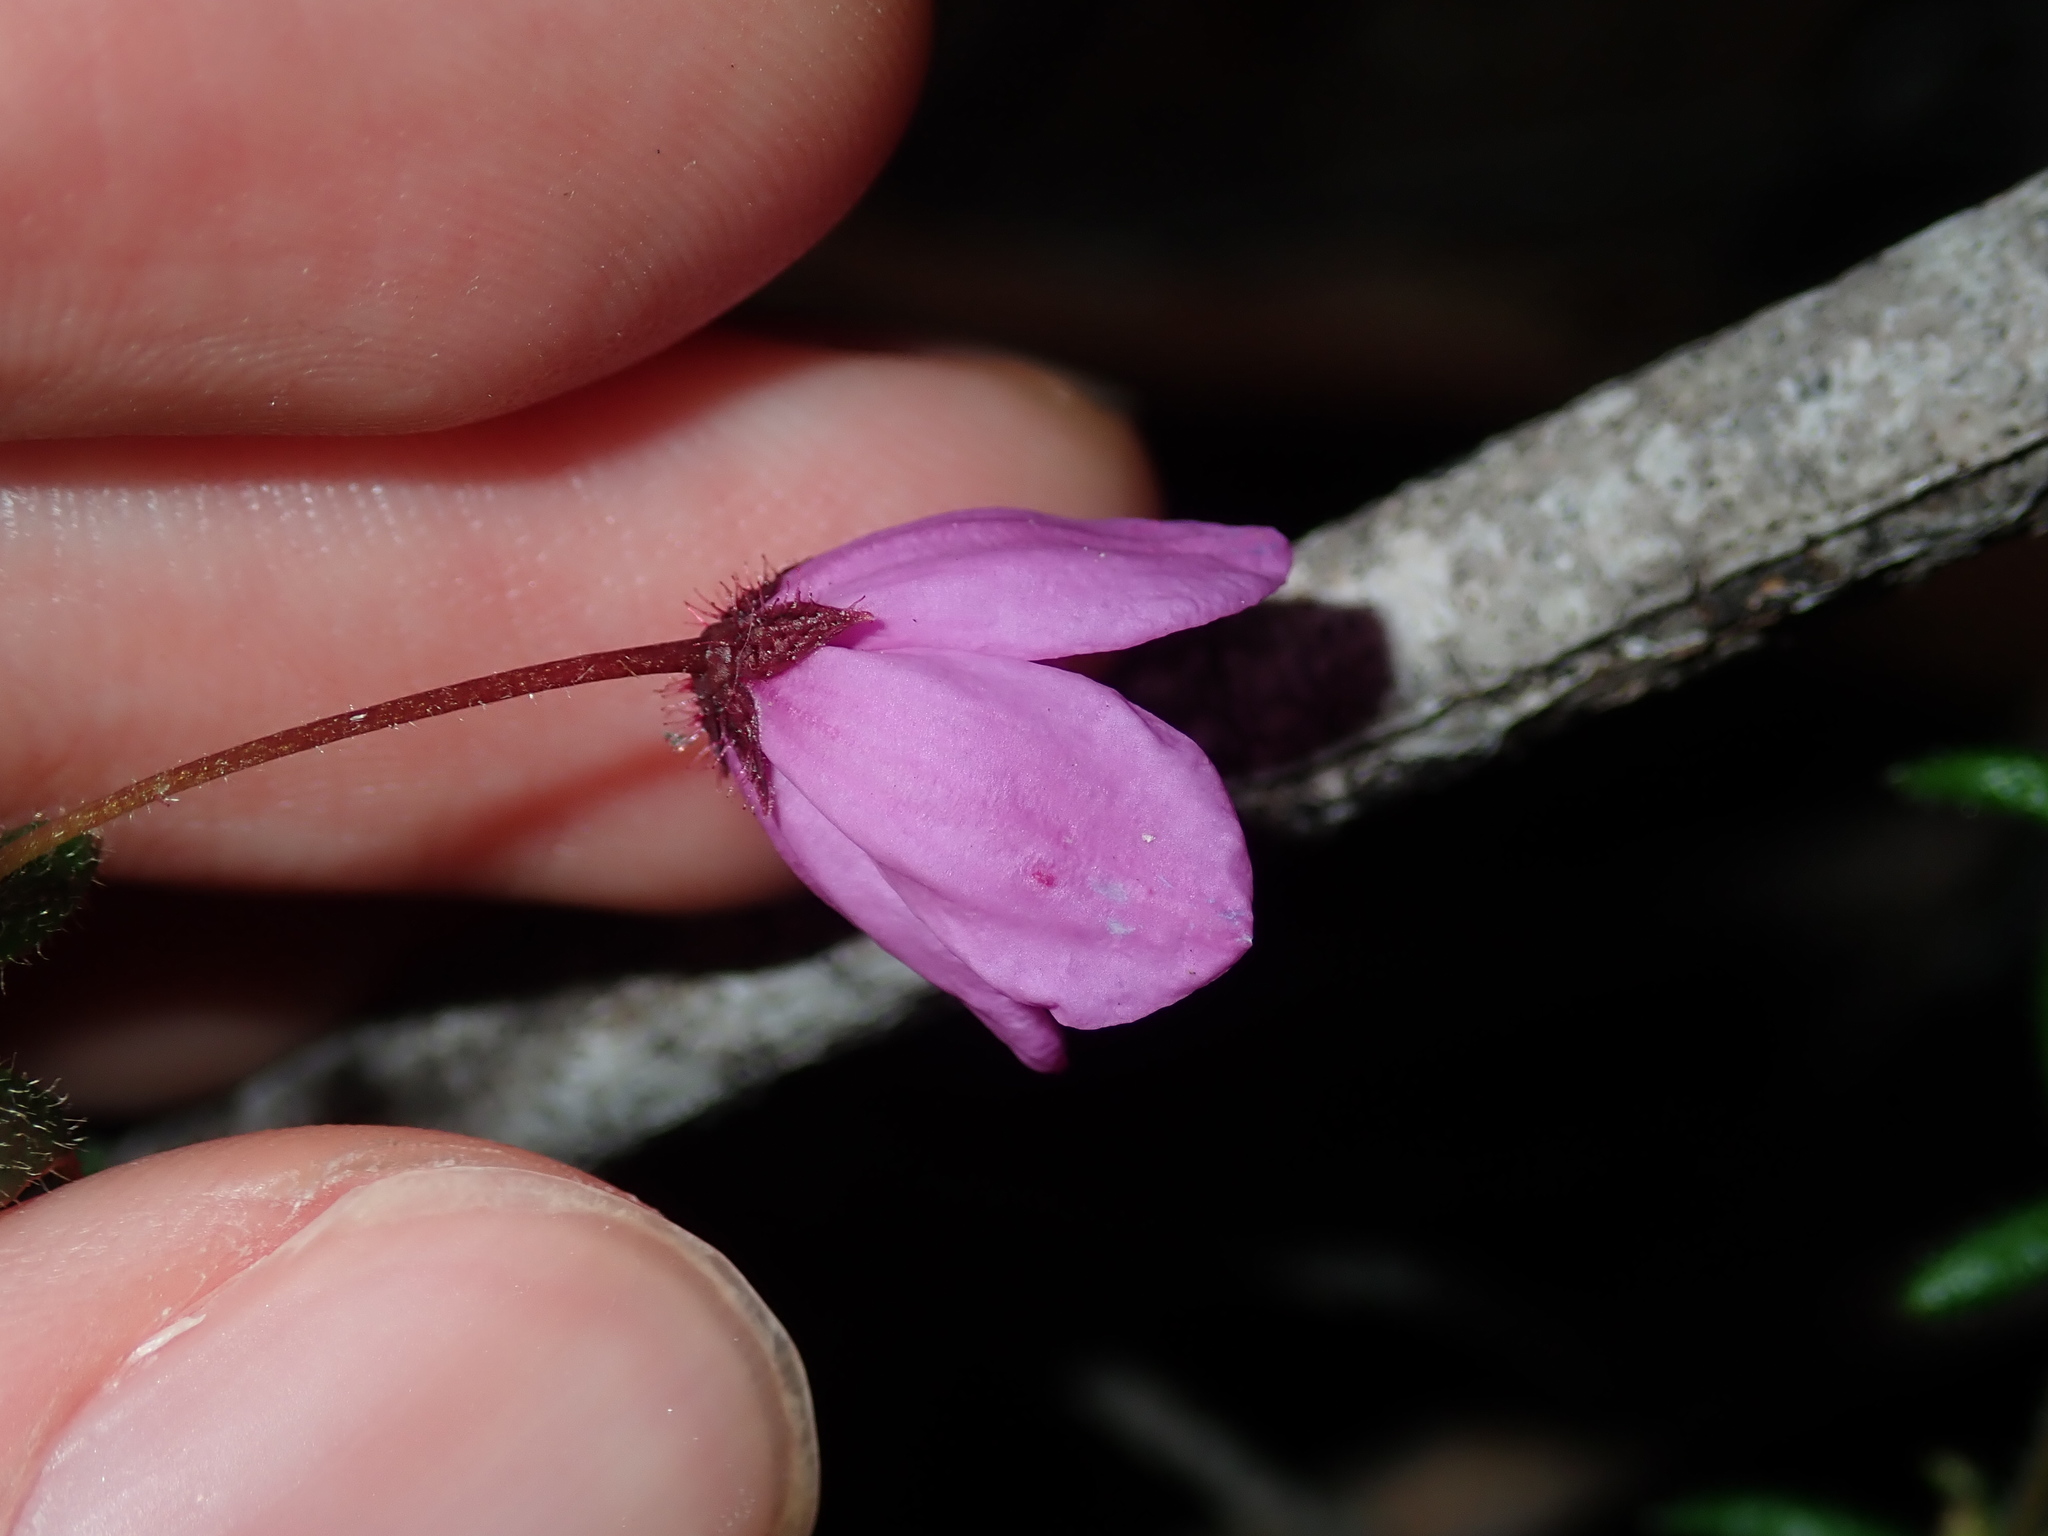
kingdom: Plantae
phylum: Tracheophyta
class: Magnoliopsida
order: Oxalidales
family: Elaeocarpaceae
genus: Tetratheca
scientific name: Tetratheca thymifolia
